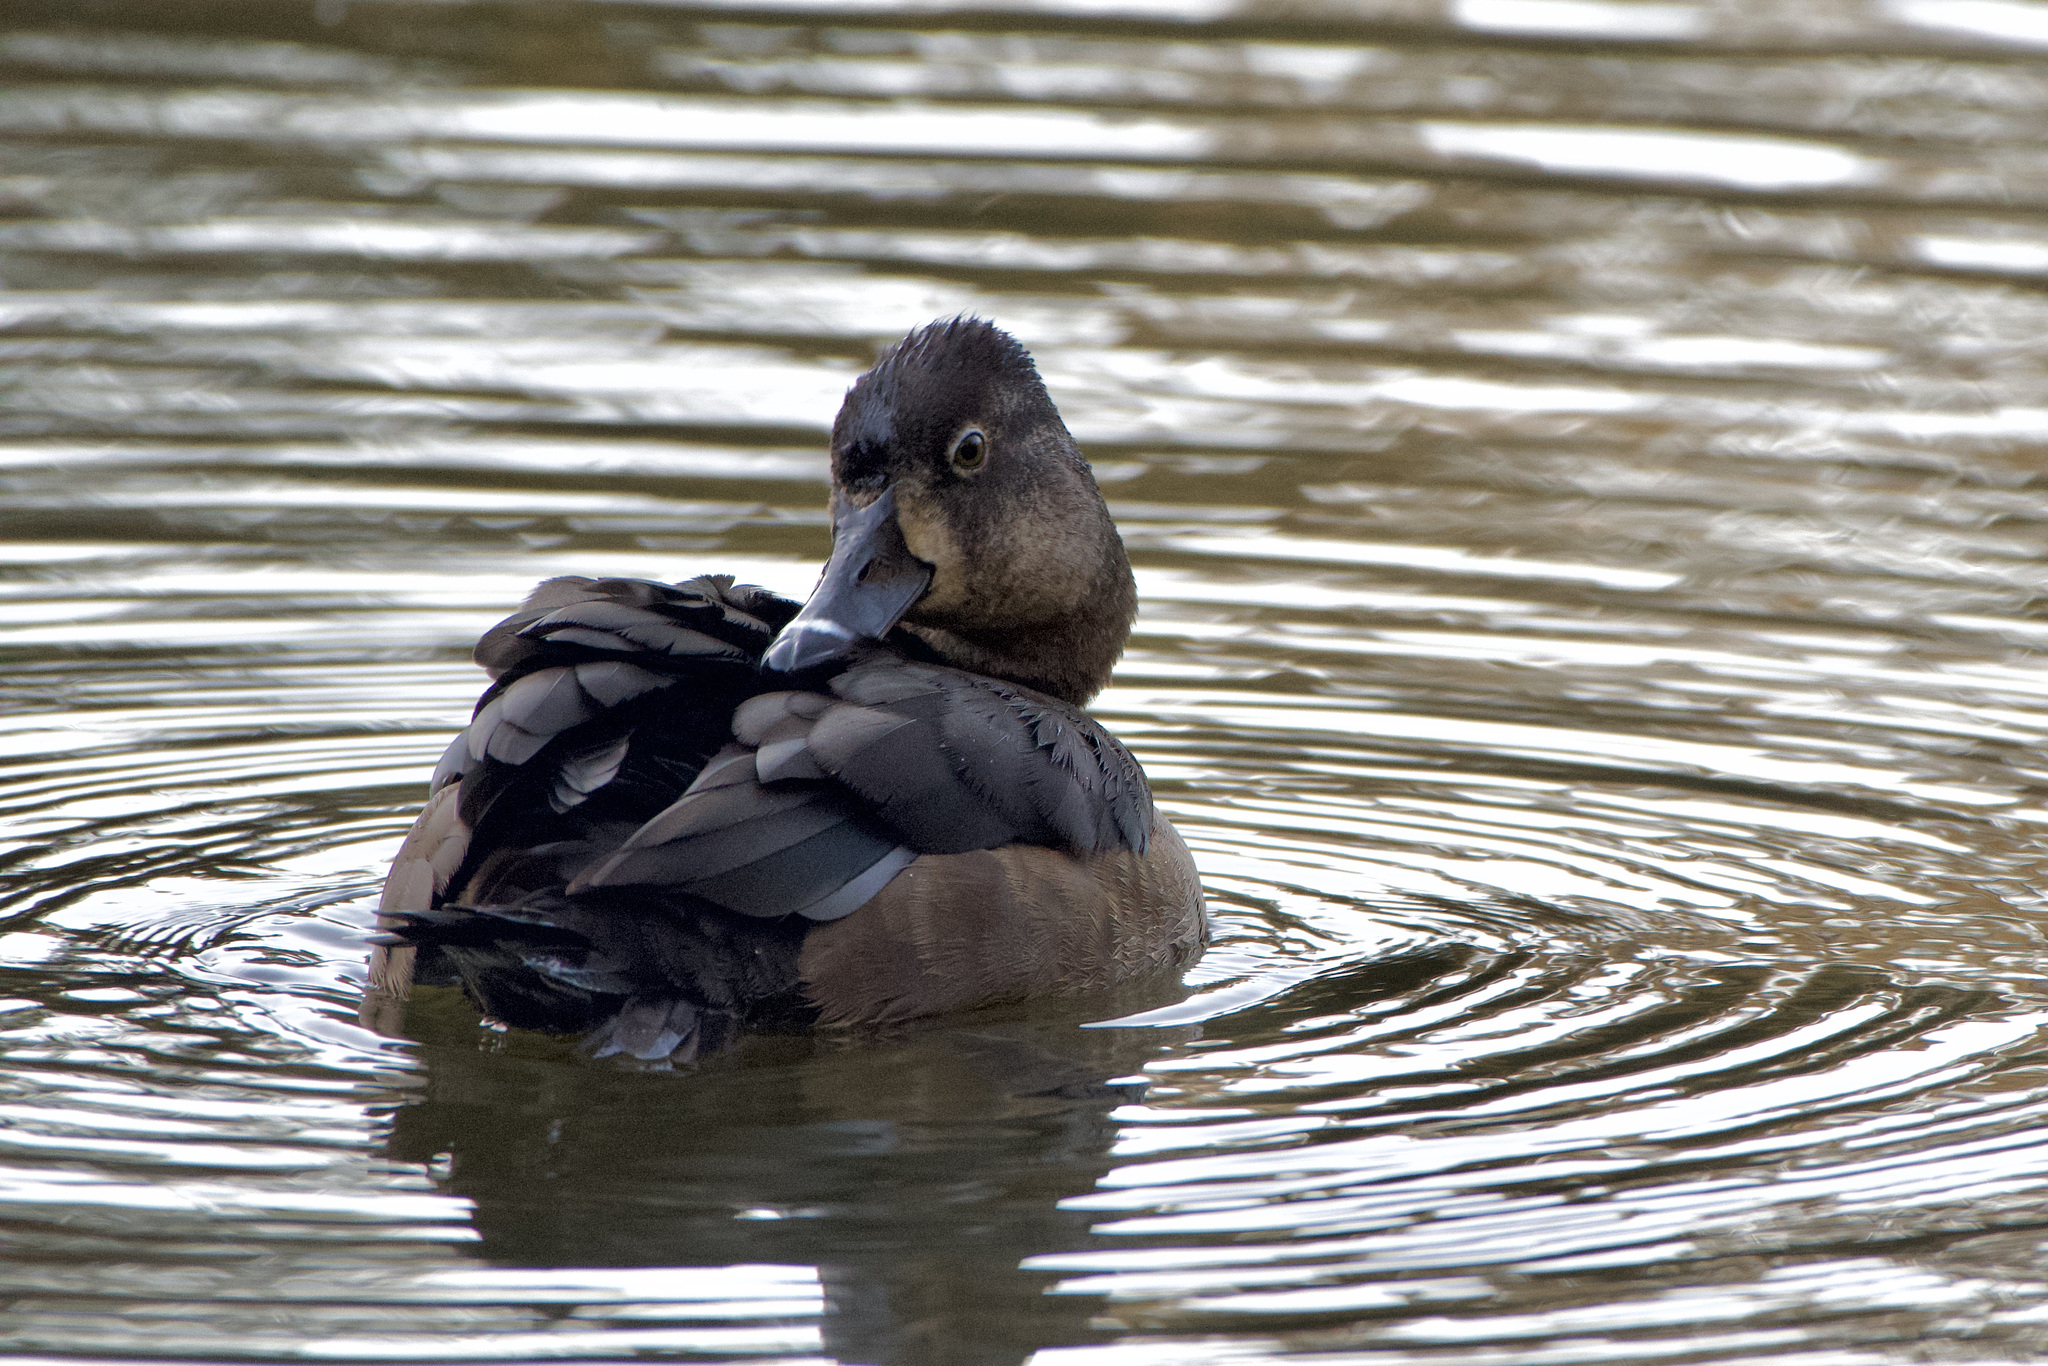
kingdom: Animalia
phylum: Chordata
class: Aves
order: Anseriformes
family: Anatidae
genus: Aythya
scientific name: Aythya collaris
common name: Ring-necked duck
